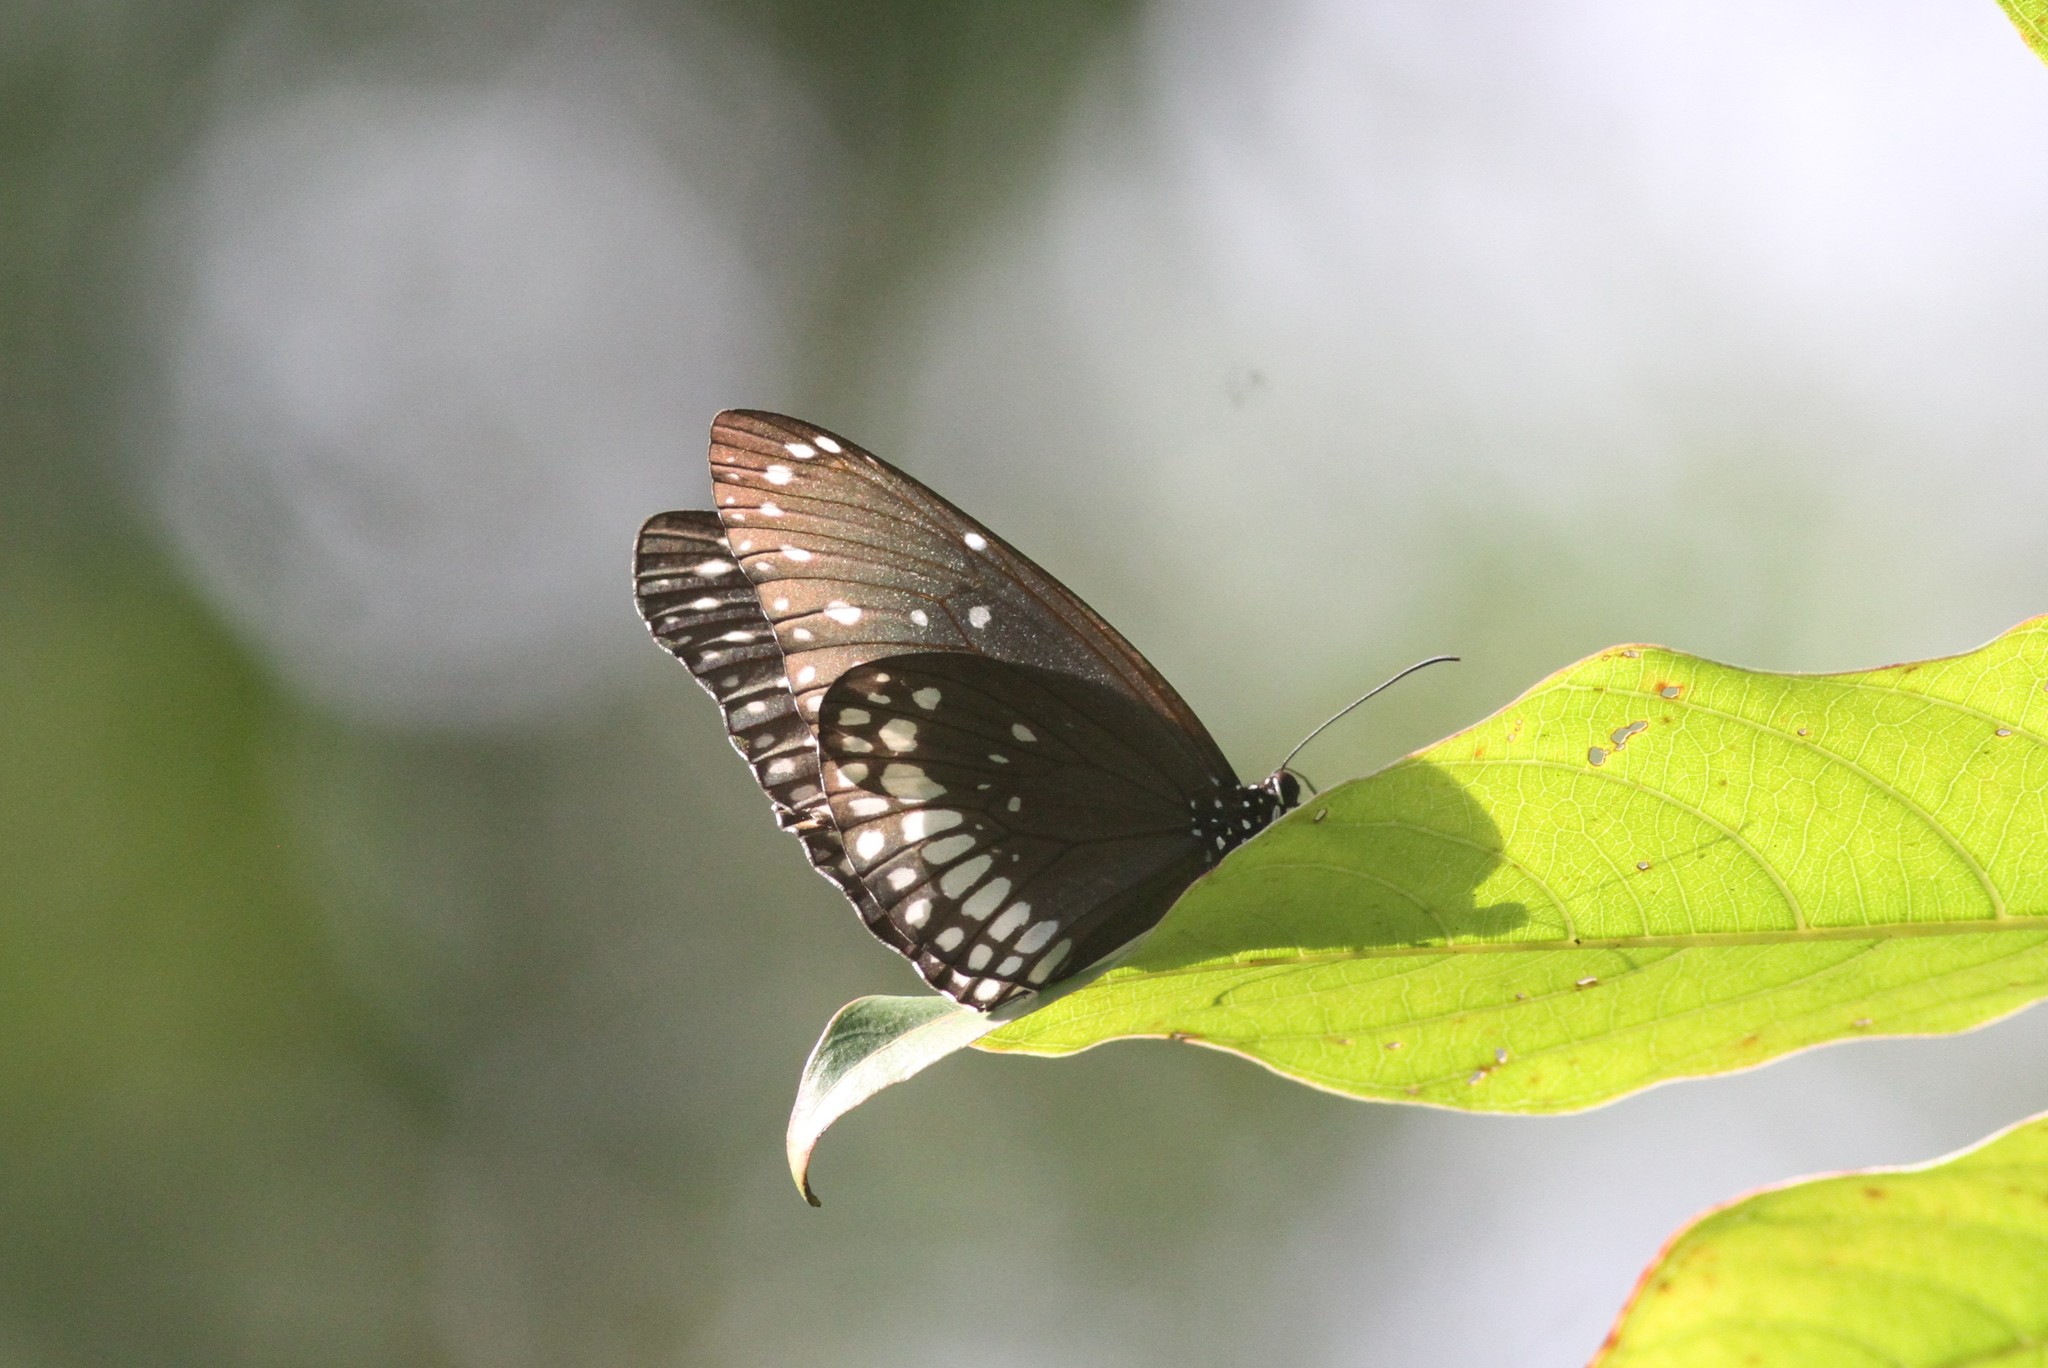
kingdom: Animalia
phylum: Arthropoda
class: Insecta
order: Lepidoptera
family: Nymphalidae
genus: Euploea
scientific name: Euploea core
